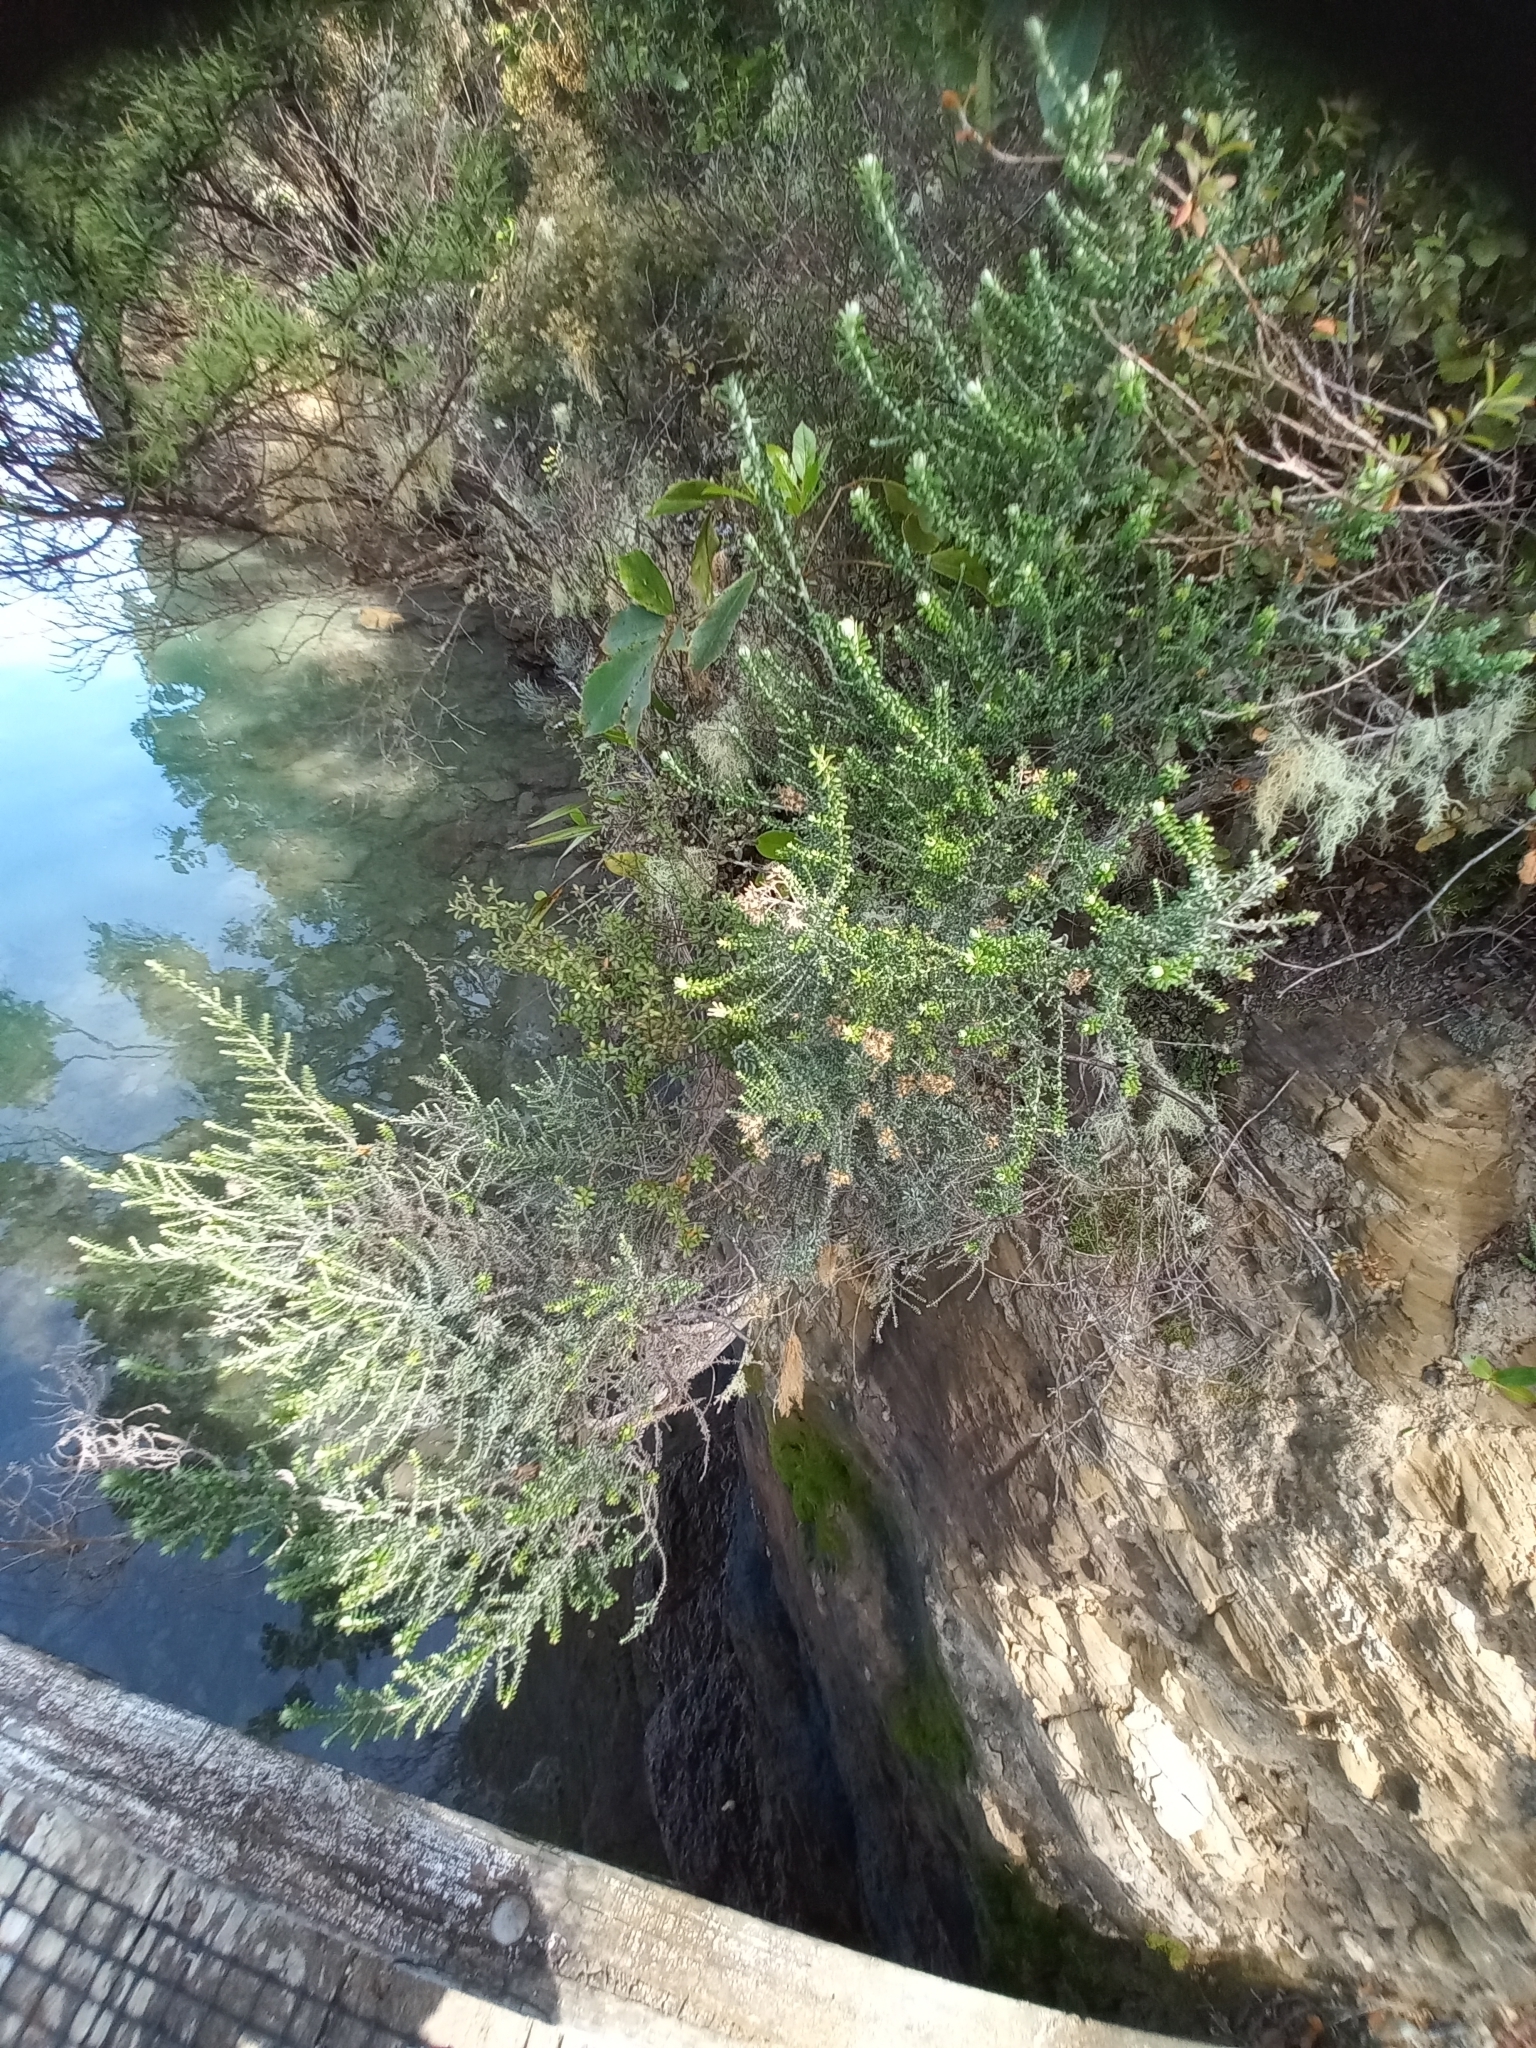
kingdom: Plantae
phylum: Tracheophyta
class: Magnoliopsida
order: Rosales
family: Rhamnaceae
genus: Pomaderris
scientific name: Pomaderris amoena
